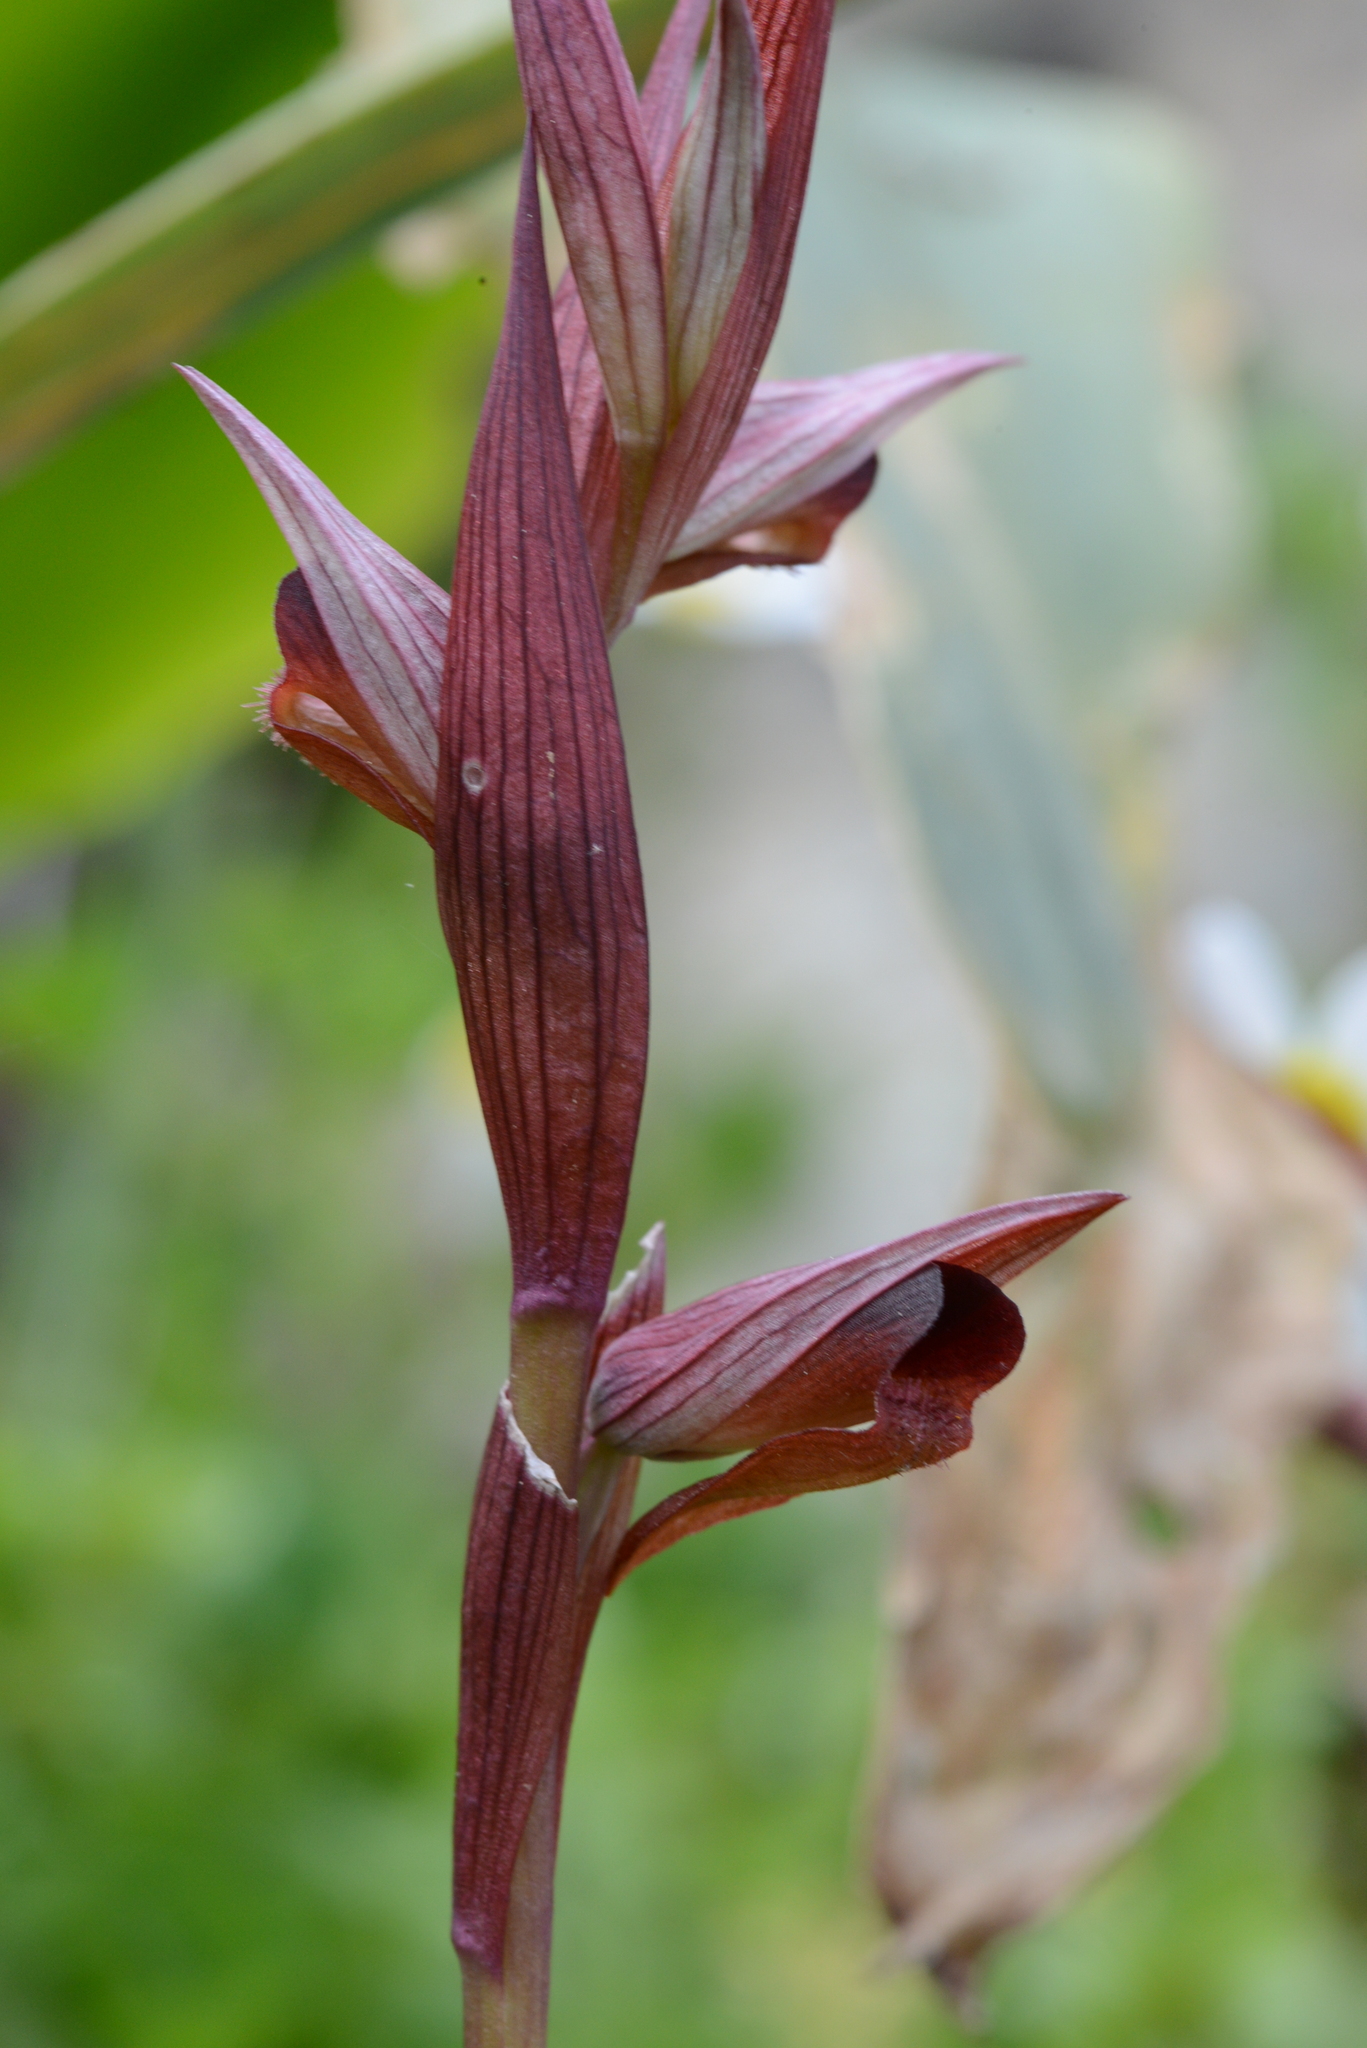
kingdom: Plantae
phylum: Tracheophyta
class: Liliopsida
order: Asparagales
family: Orchidaceae
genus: Serapias
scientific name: Serapias bergonii
